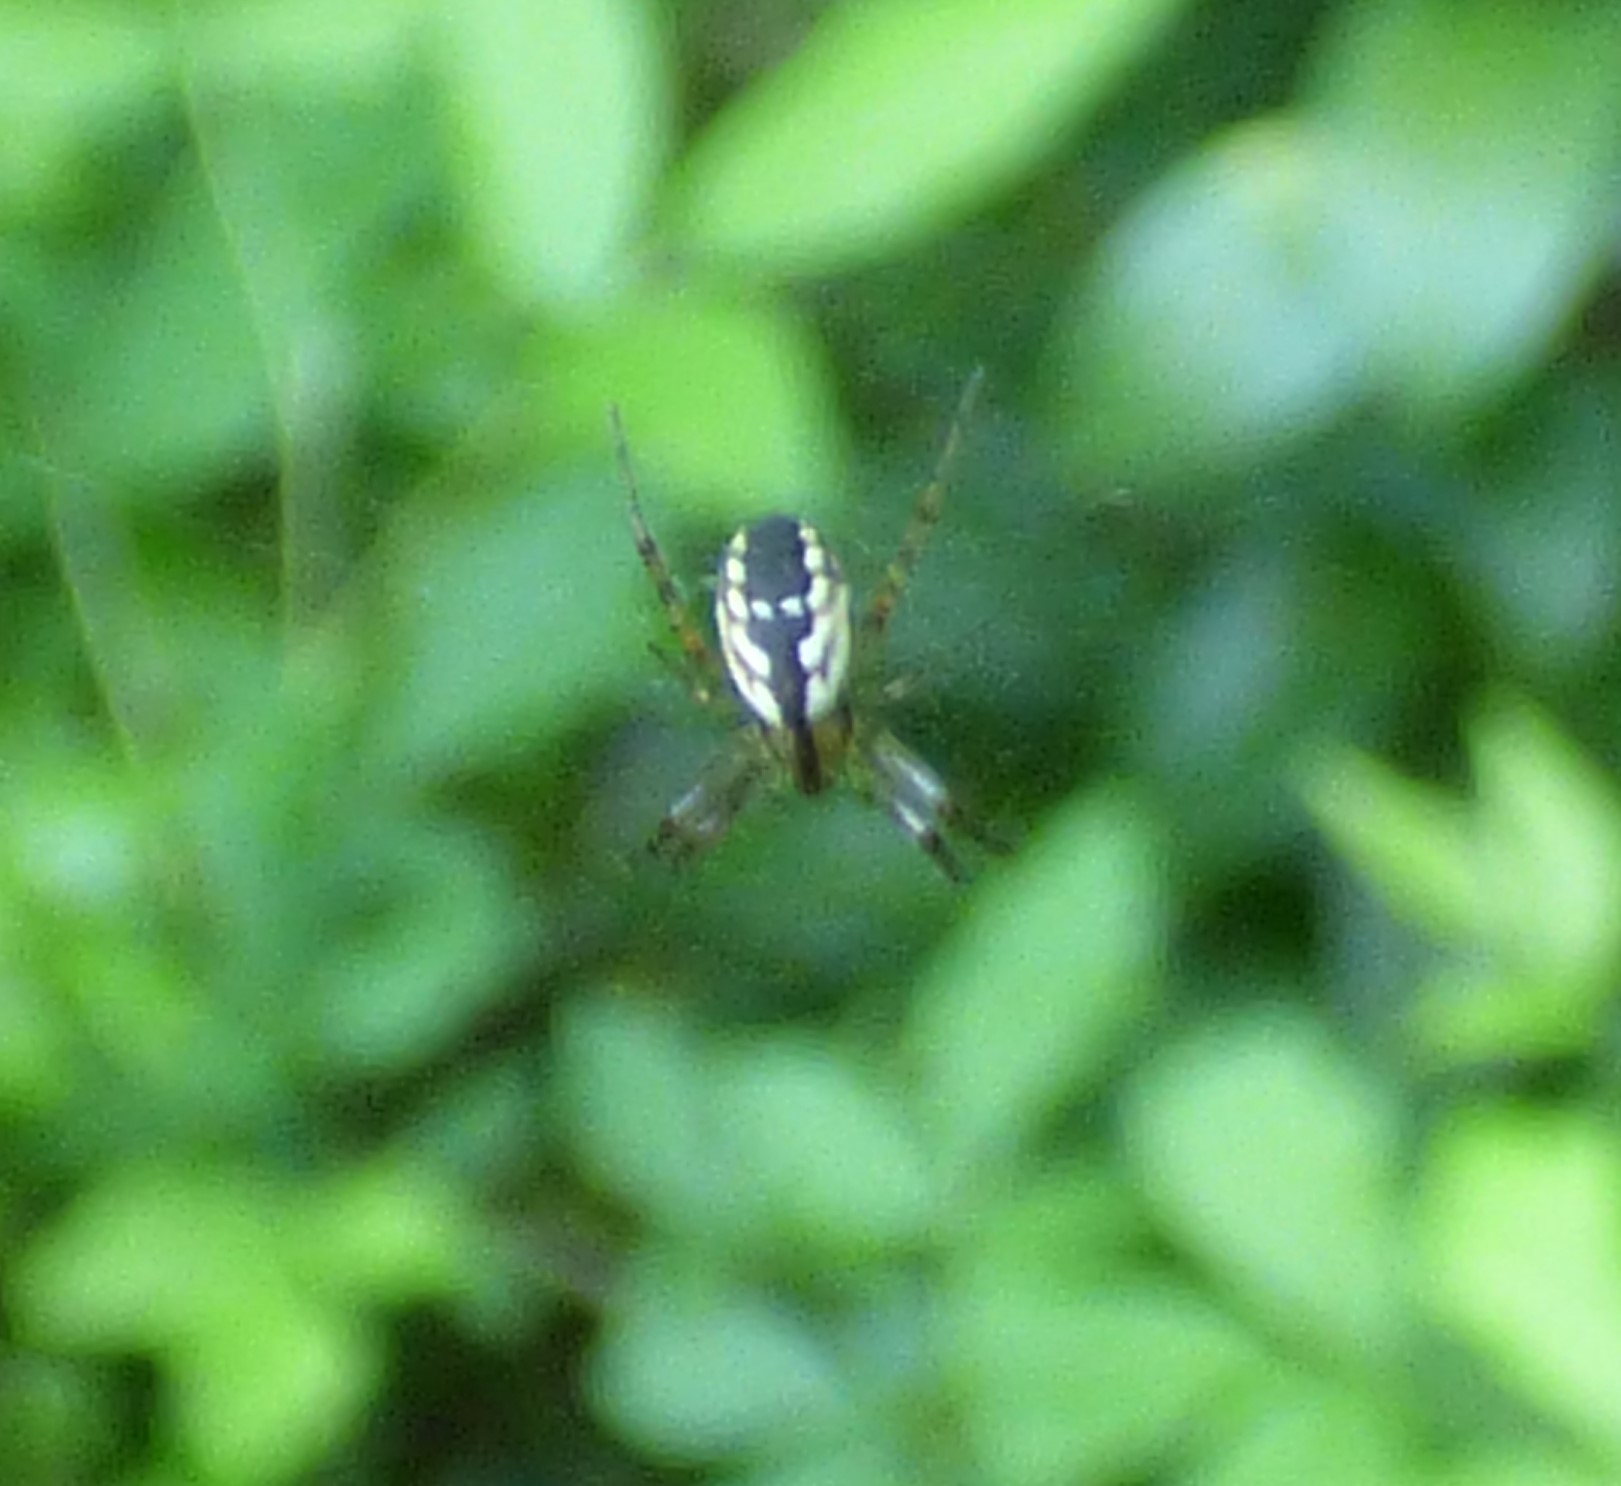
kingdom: Animalia
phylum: Arthropoda
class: Arachnida
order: Araneae
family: Araneidae
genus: Mangora
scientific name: Mangora placida
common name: Tuft-legged orbweaver
